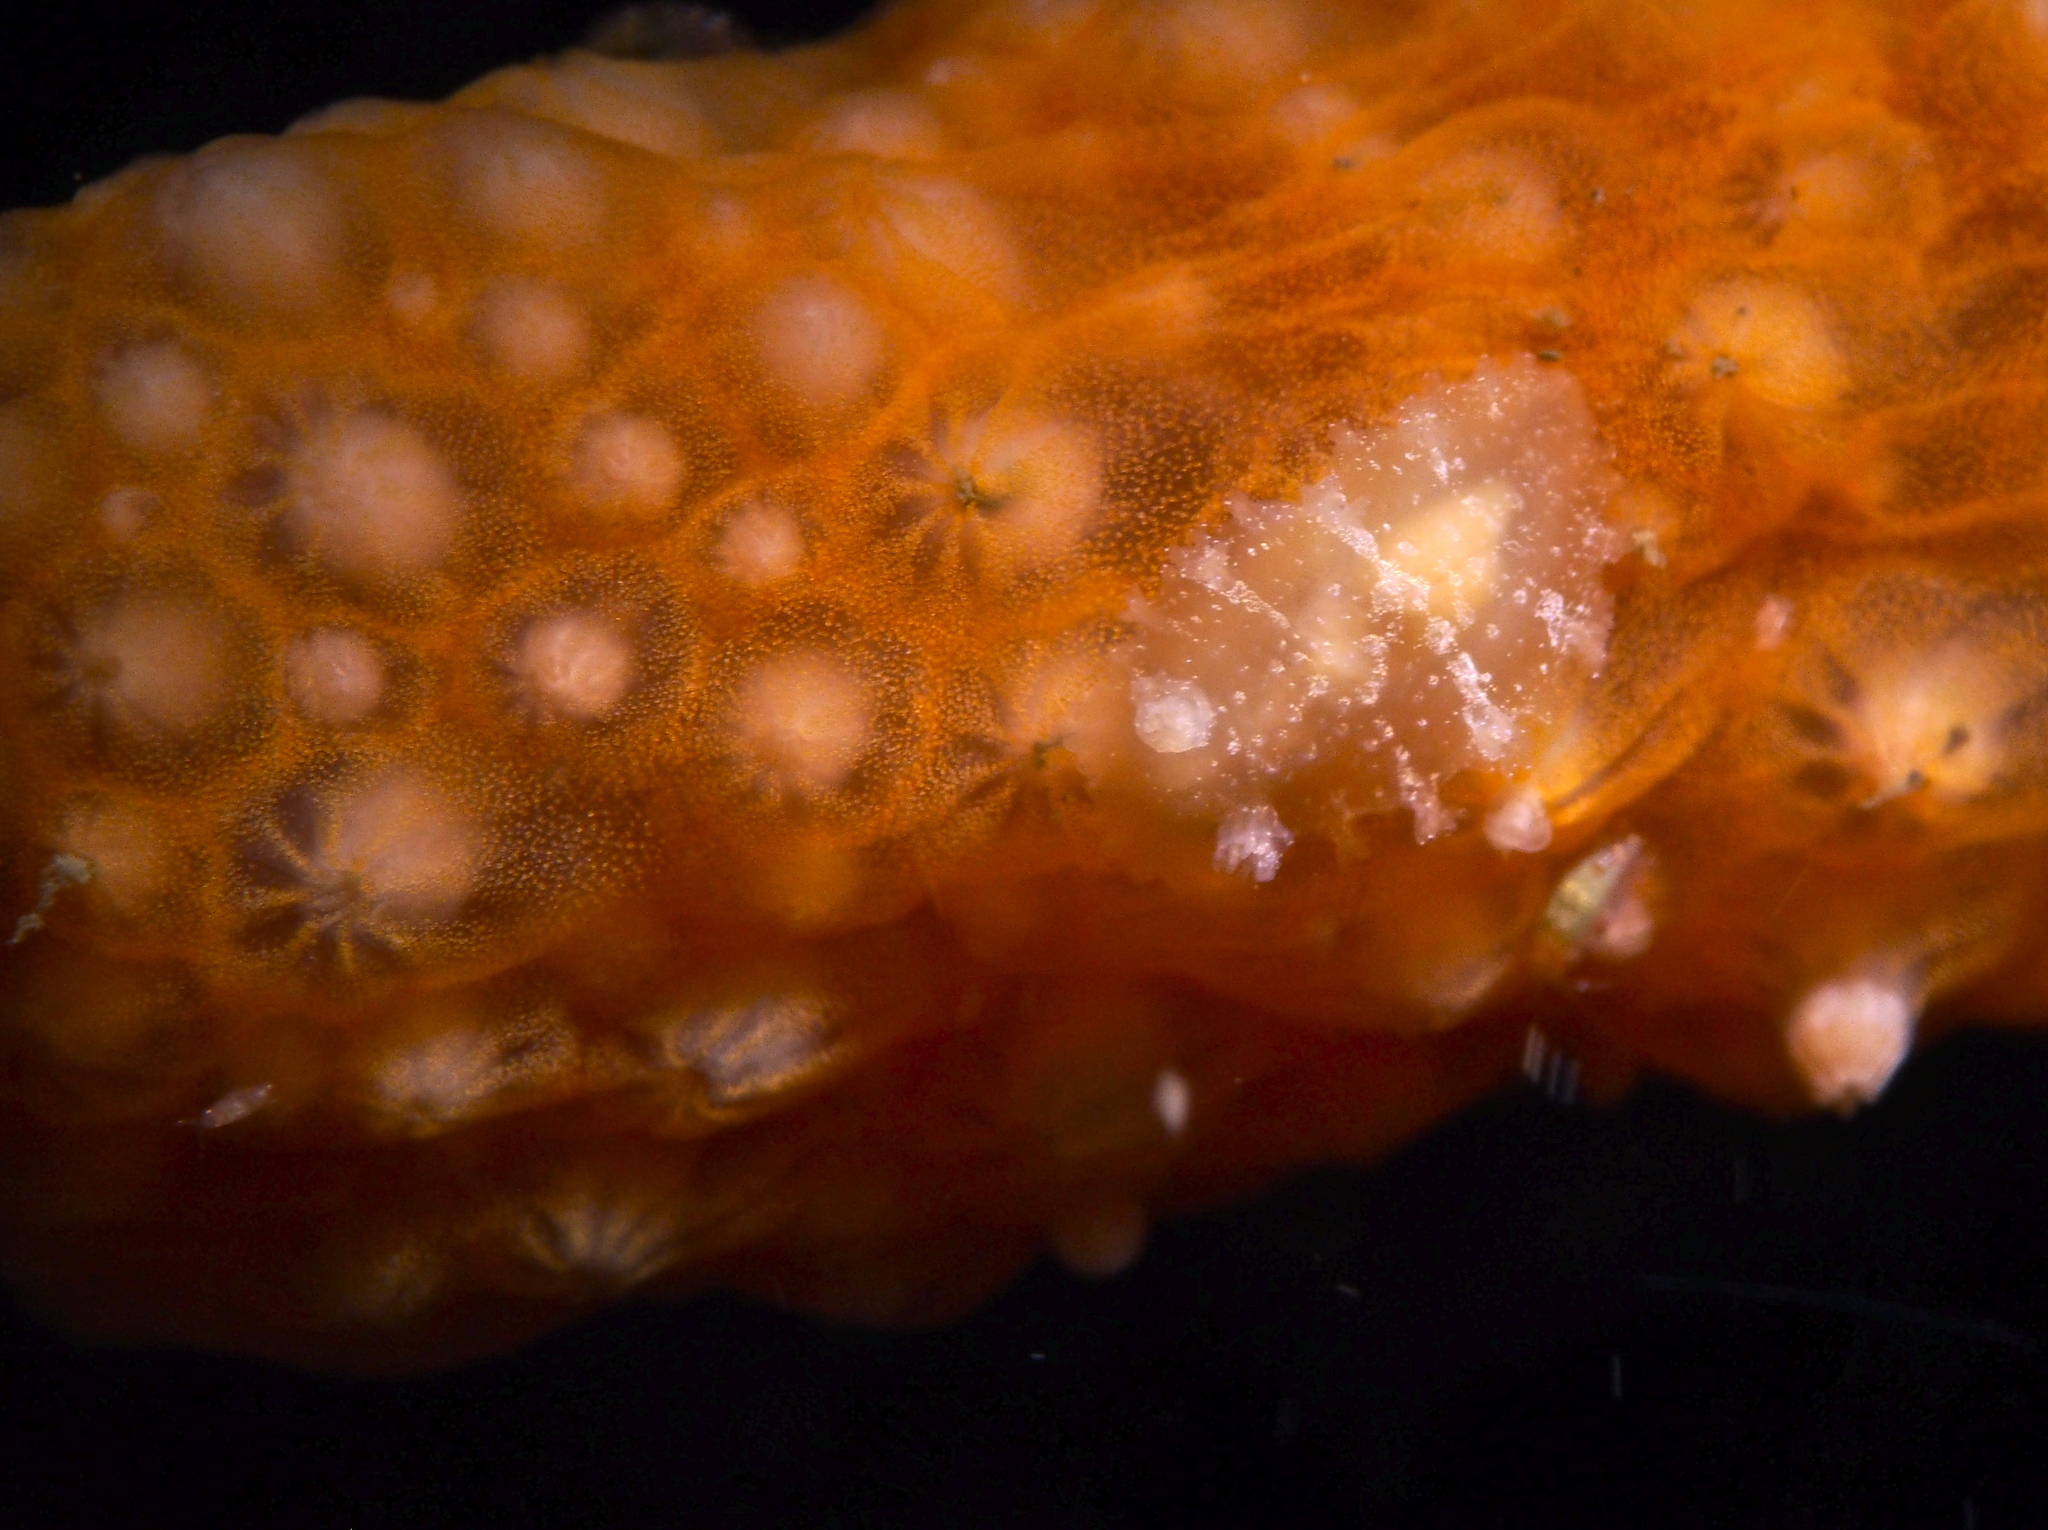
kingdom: Animalia
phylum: Mollusca
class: Gastropoda
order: Nudibranchia
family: Tritoniidae
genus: Tritonia
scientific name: Tritonia hombergii
